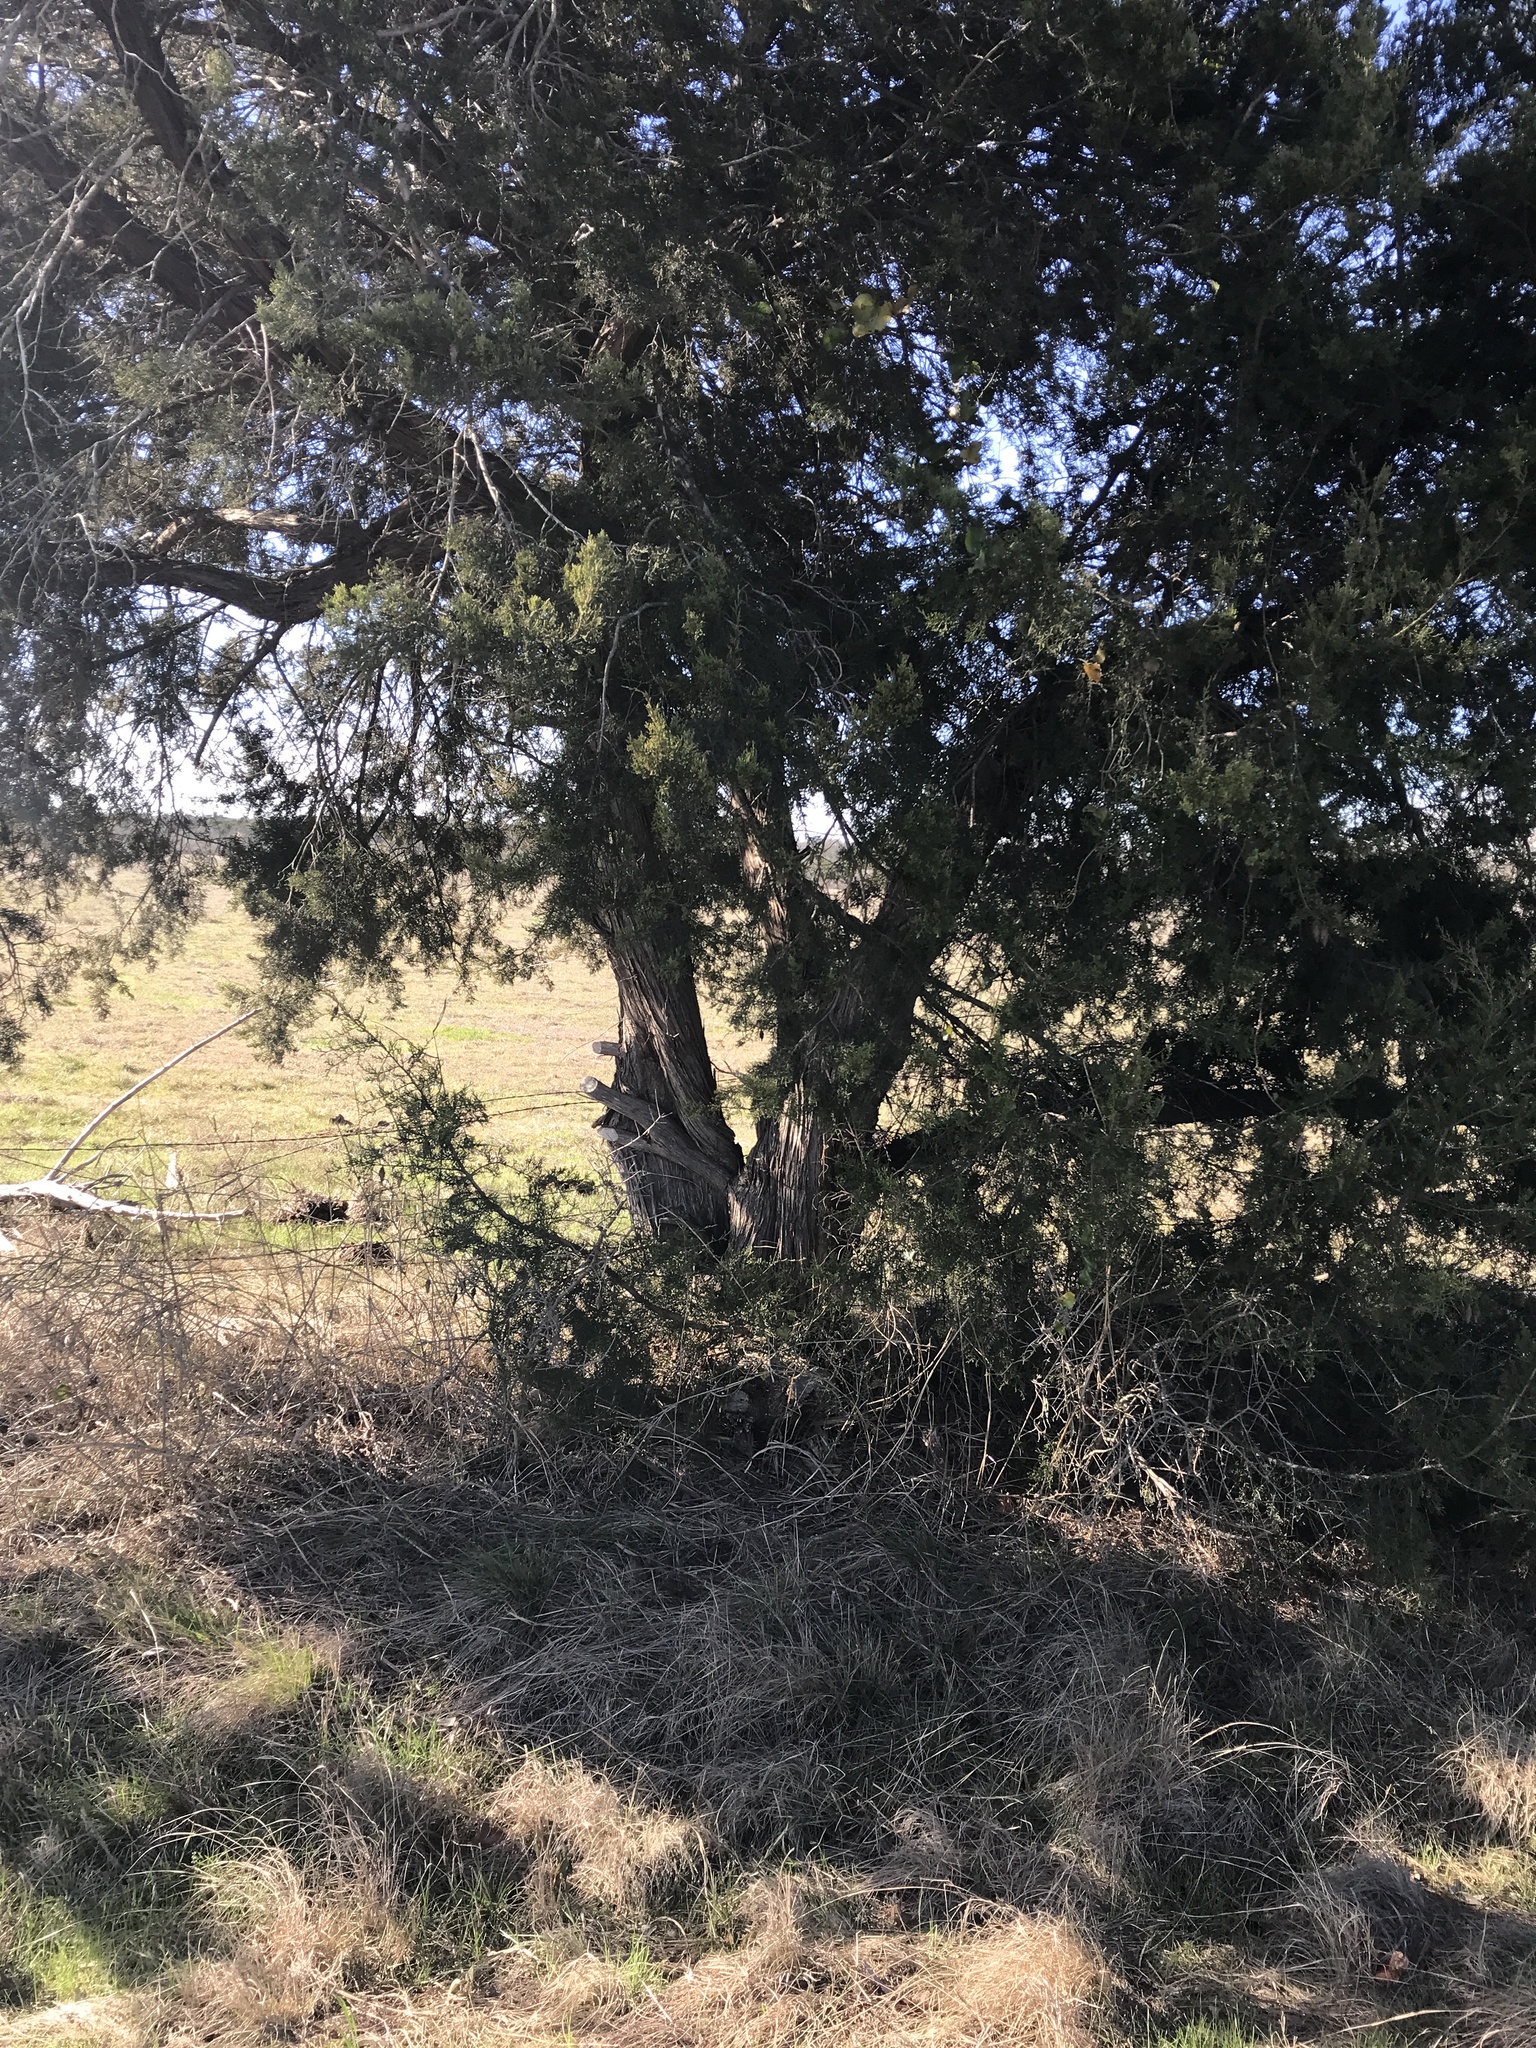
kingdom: Plantae
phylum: Tracheophyta
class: Pinopsida
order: Pinales
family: Cupressaceae
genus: Juniperus
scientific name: Juniperus ashei
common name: Mexican juniper
